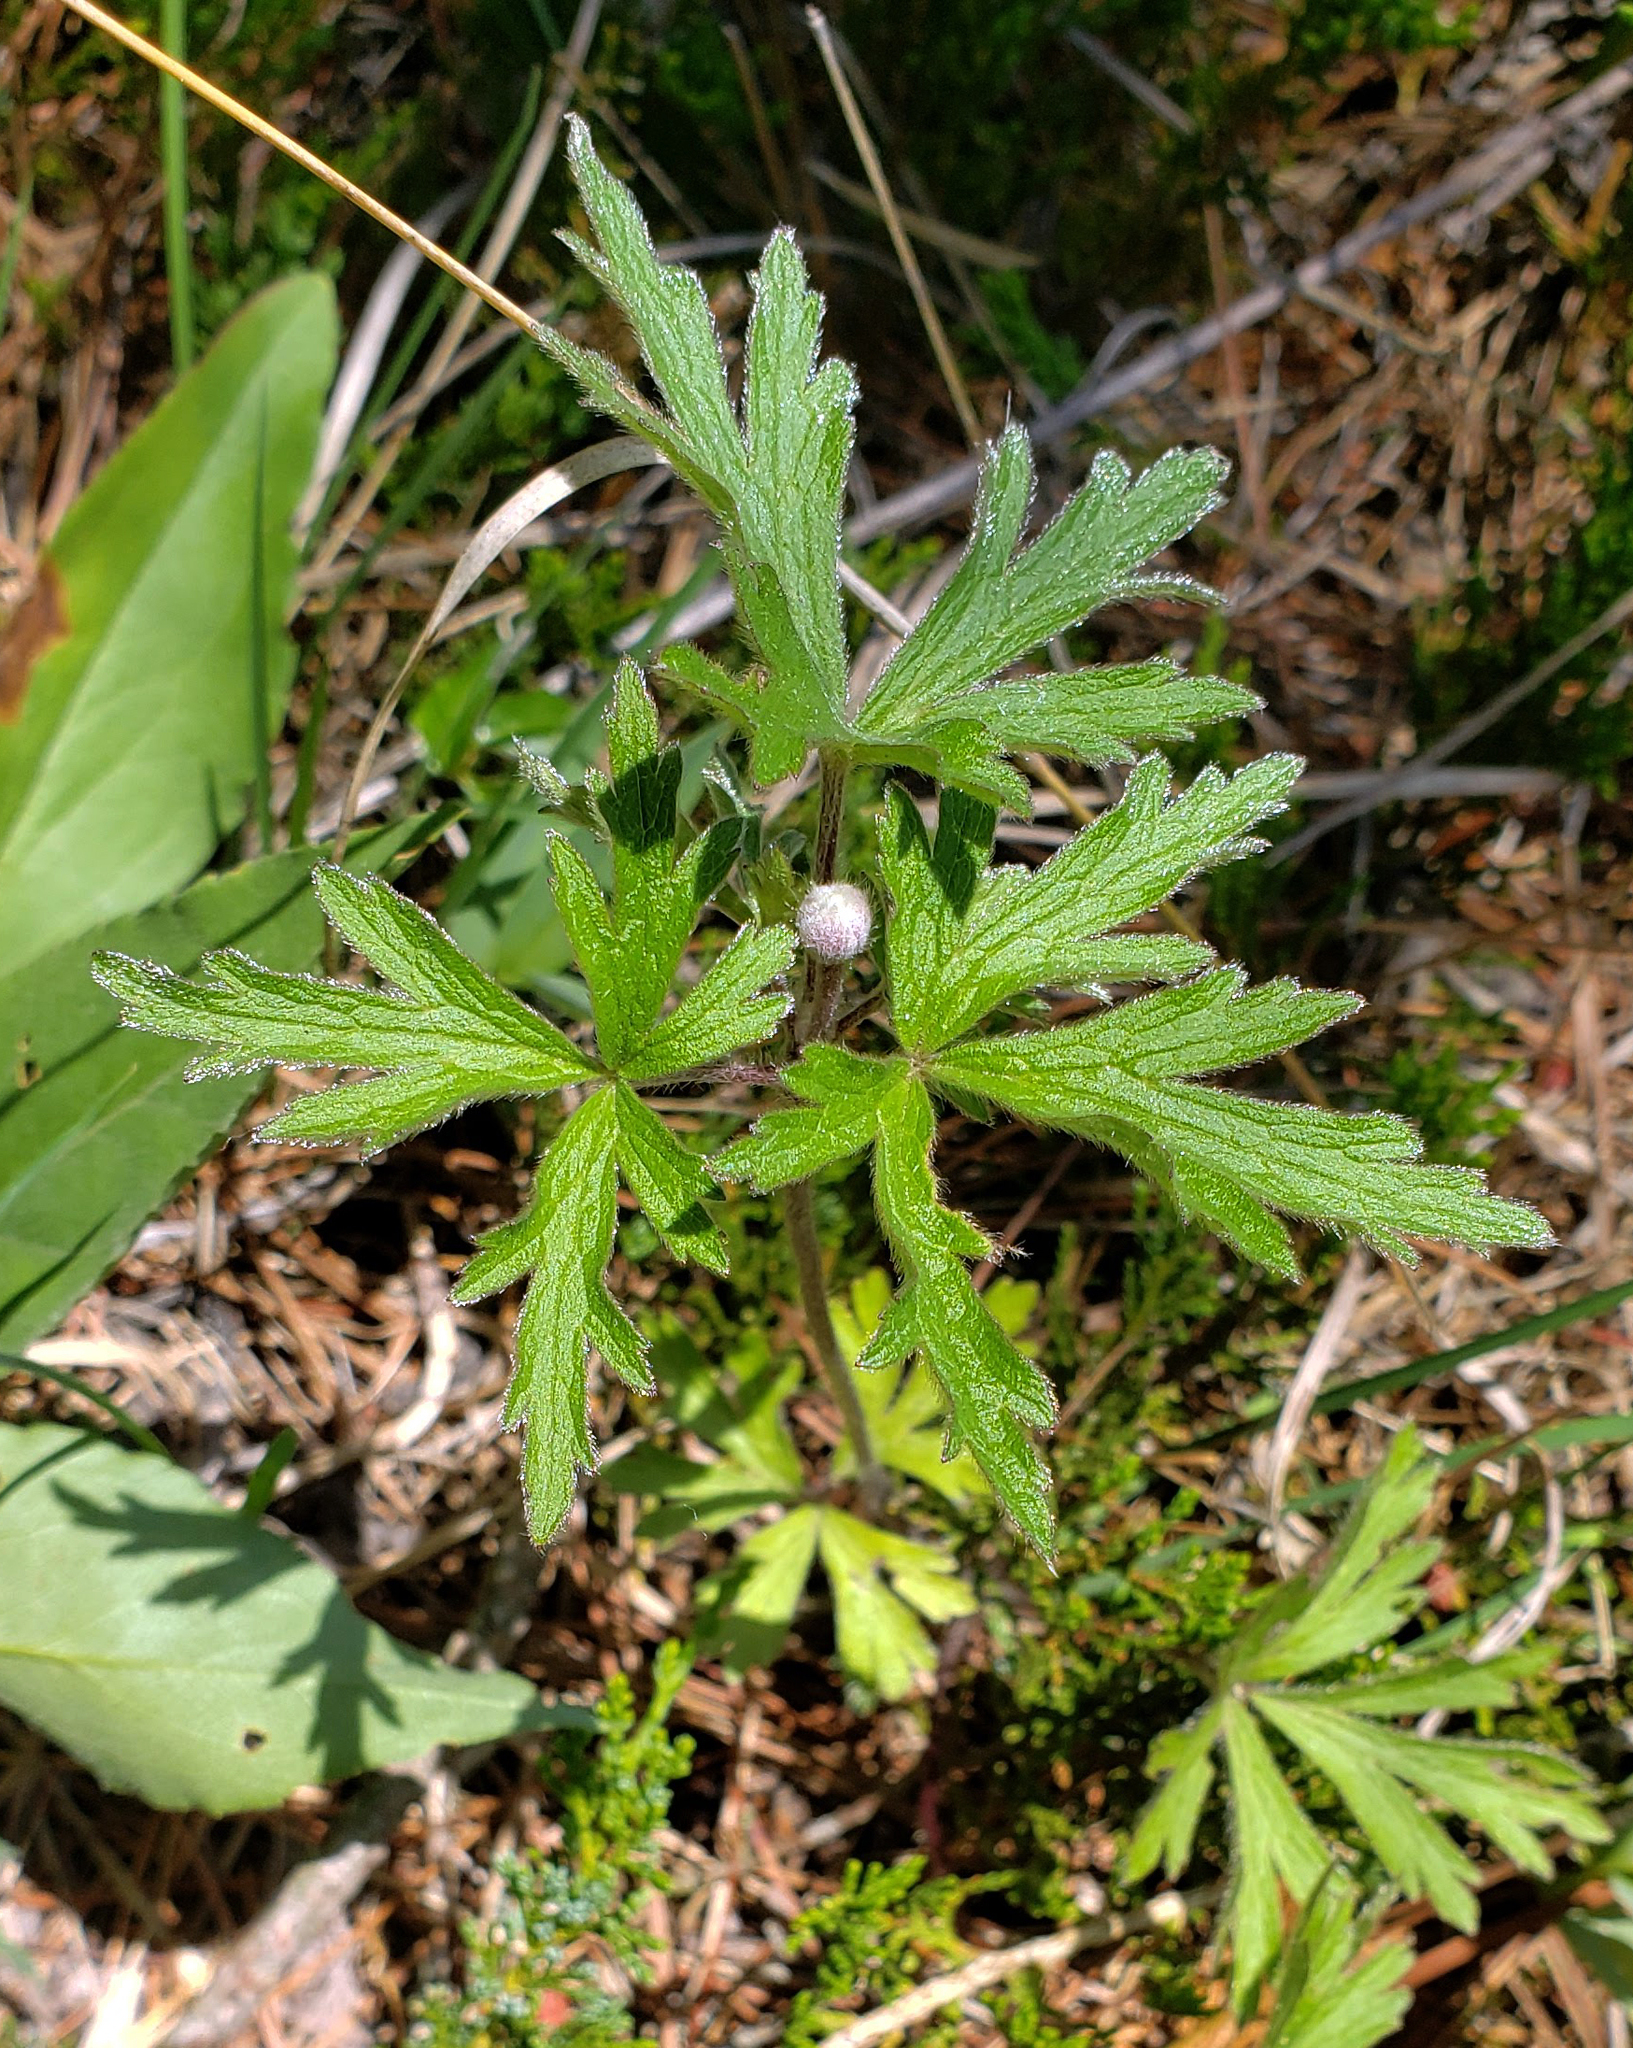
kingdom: Plantae
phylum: Tracheophyta
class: Magnoliopsida
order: Ranunculales
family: Ranunculaceae
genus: Anemone
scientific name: Anemone cylindrica
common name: Candle anemone
